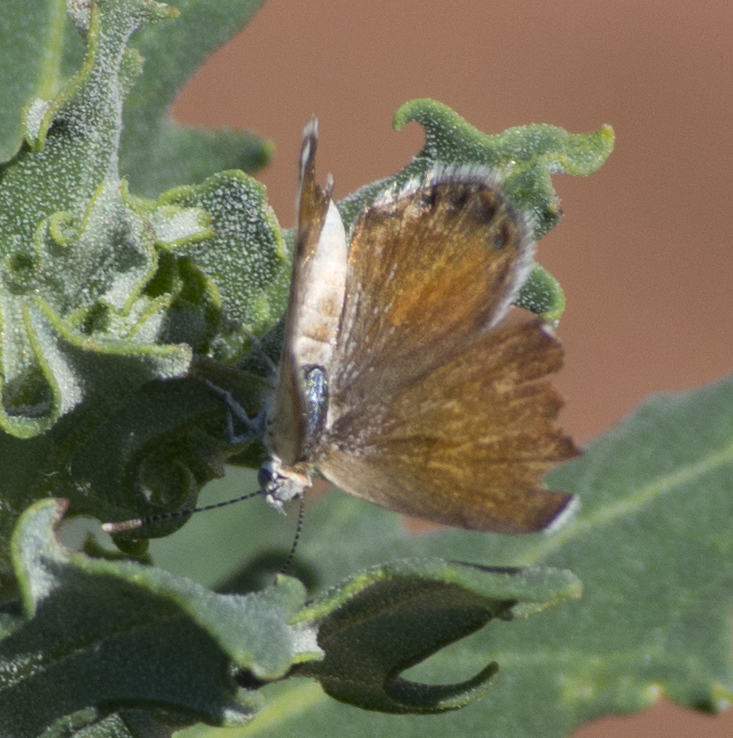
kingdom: Animalia
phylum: Arthropoda
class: Insecta
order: Lepidoptera
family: Lycaenidae
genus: Brephidium
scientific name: Brephidium exilis
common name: Pygmy blue
